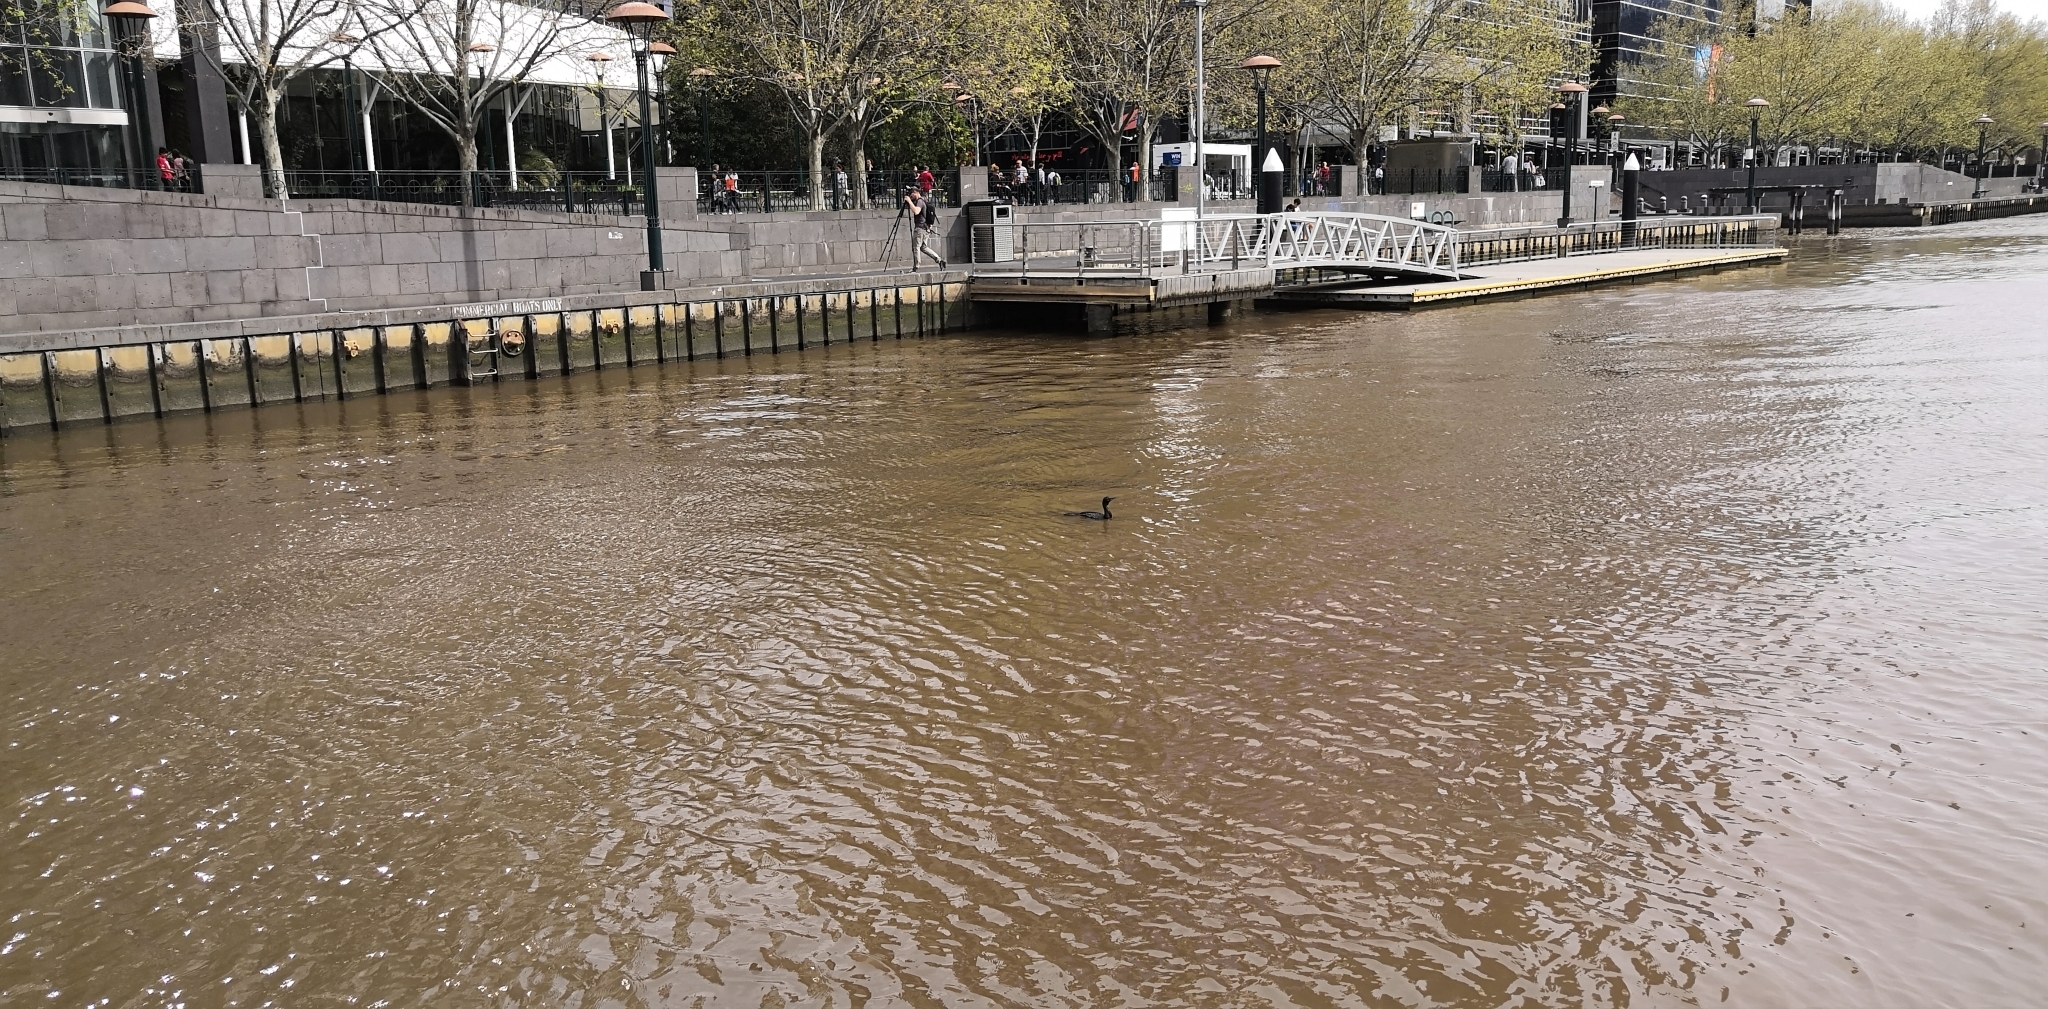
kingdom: Animalia
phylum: Chordata
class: Aves
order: Suliformes
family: Phalacrocoracidae
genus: Phalacrocorax
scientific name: Phalacrocorax sulcirostris
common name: Little black cormorant
